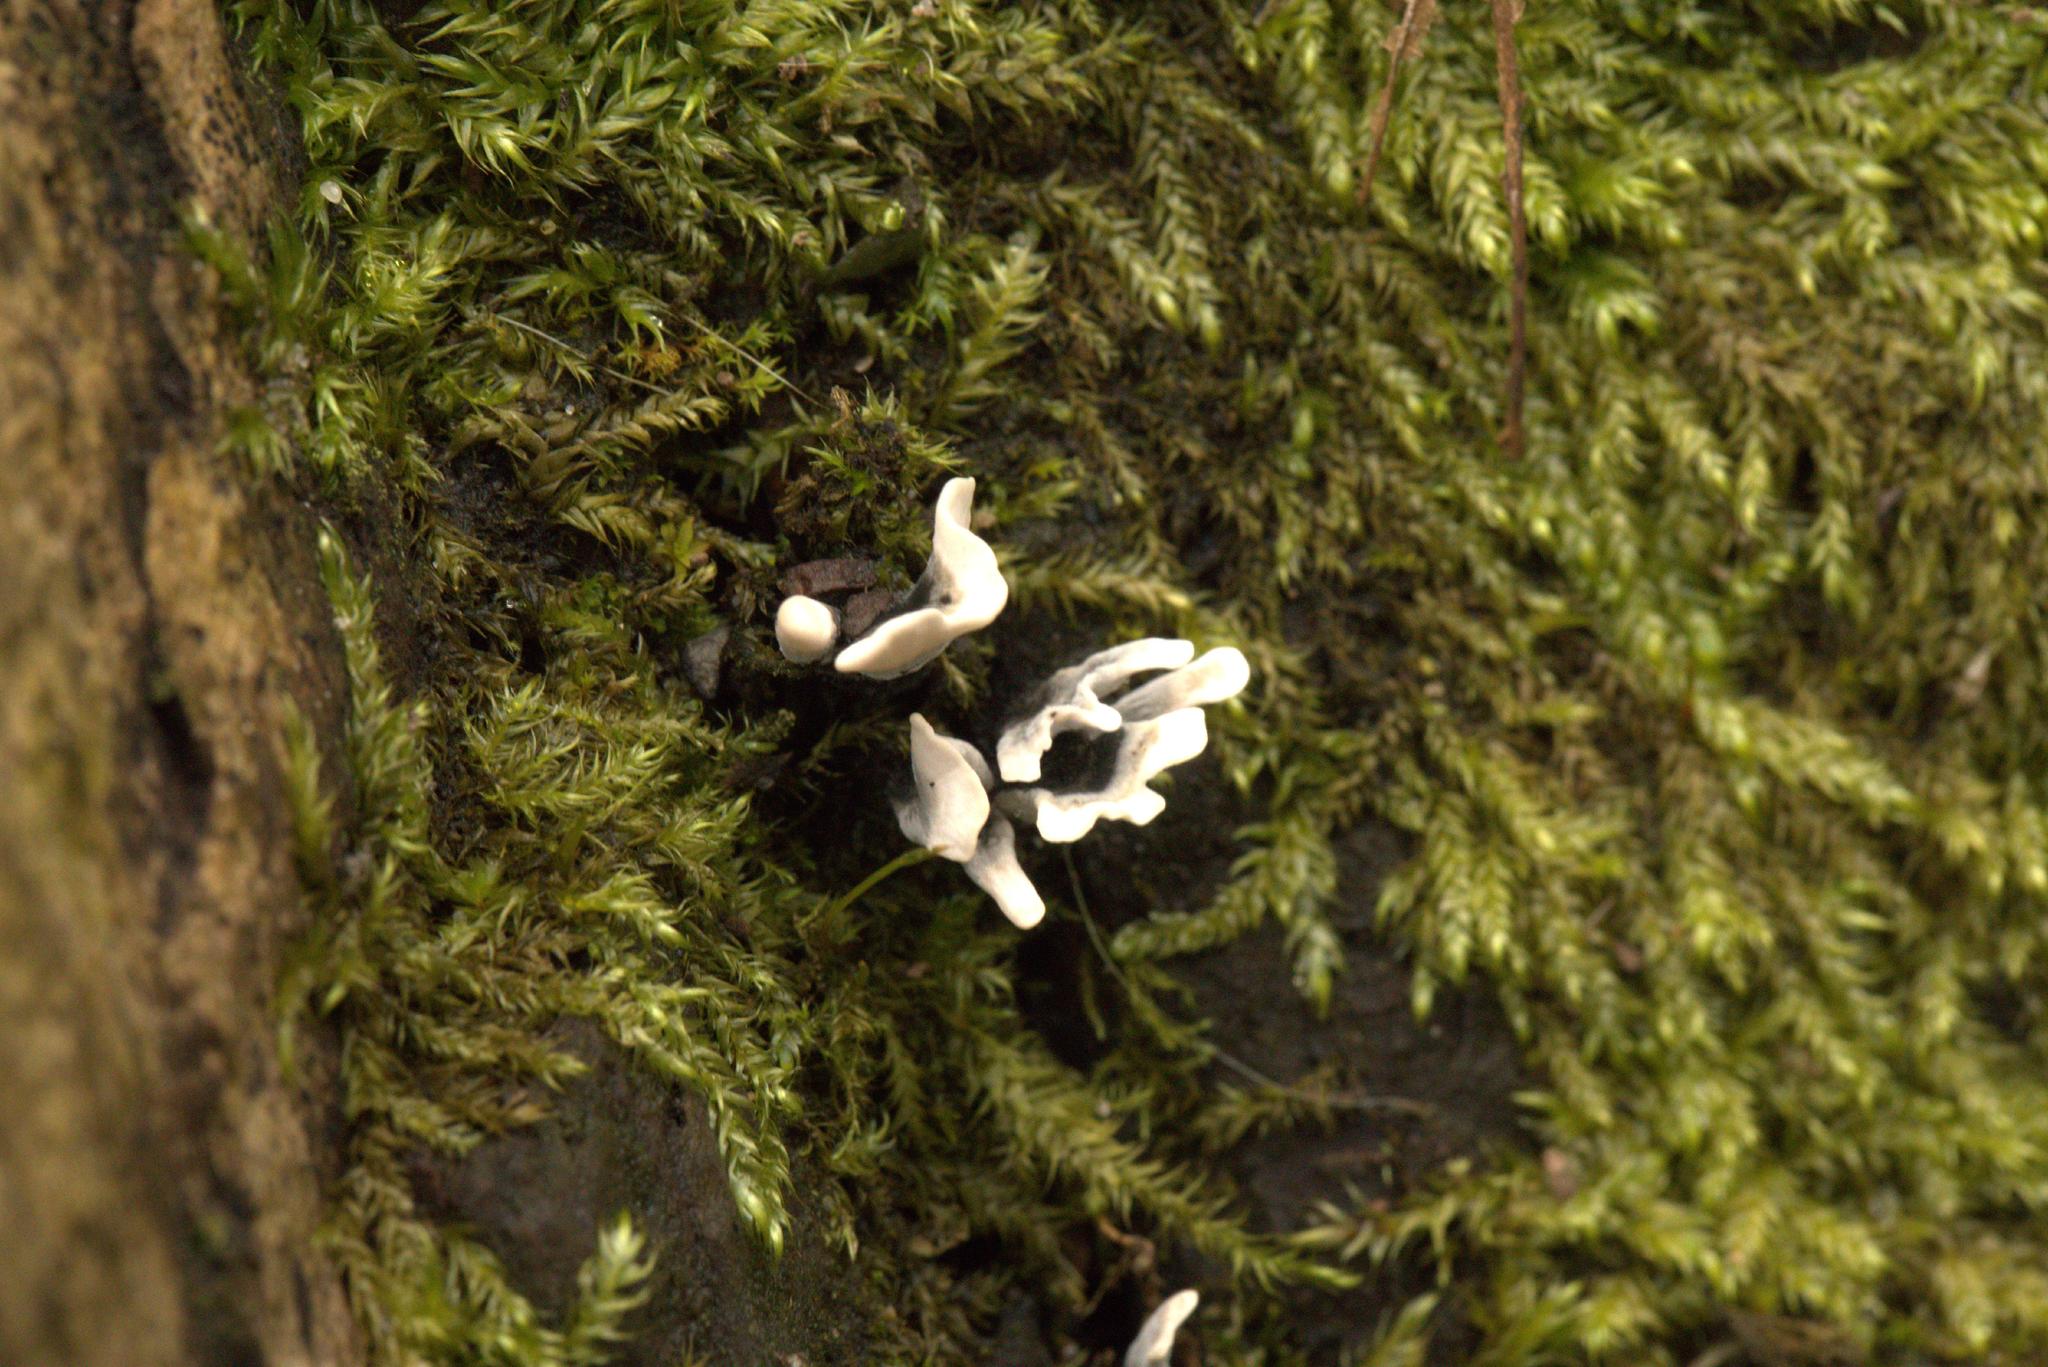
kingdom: Fungi
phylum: Ascomycota
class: Sordariomycetes
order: Xylariales
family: Xylariaceae
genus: Xylaria
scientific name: Xylaria hypoxylon
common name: Candle-snuff fungus
